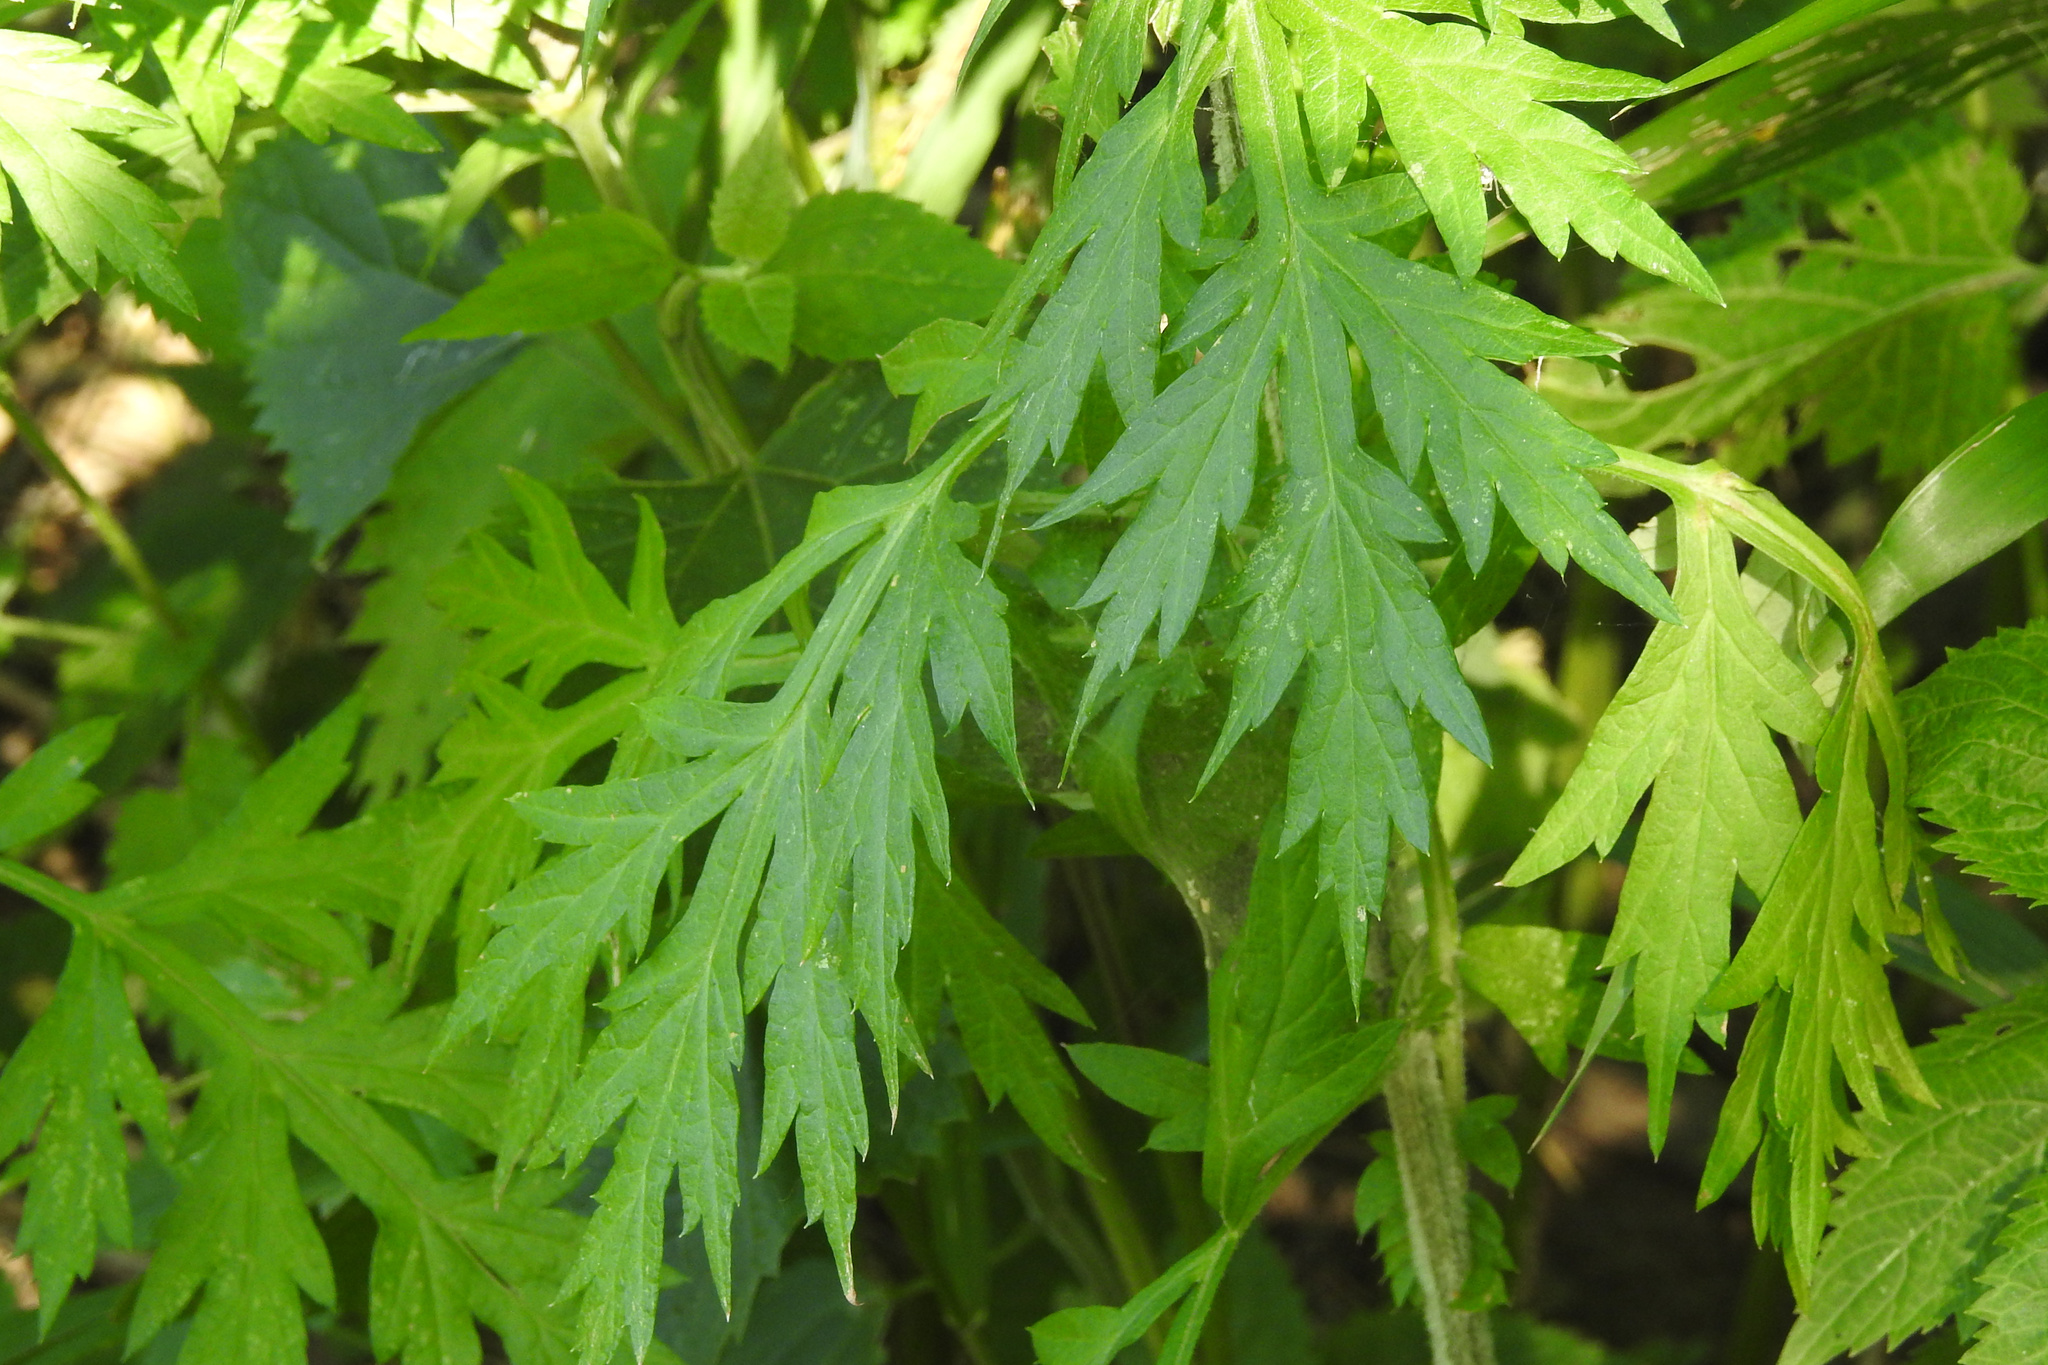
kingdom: Plantae
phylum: Tracheophyta
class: Magnoliopsida
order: Asterales
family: Asteraceae
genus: Artemisia
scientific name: Artemisia vulgaris
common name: Mugwort
